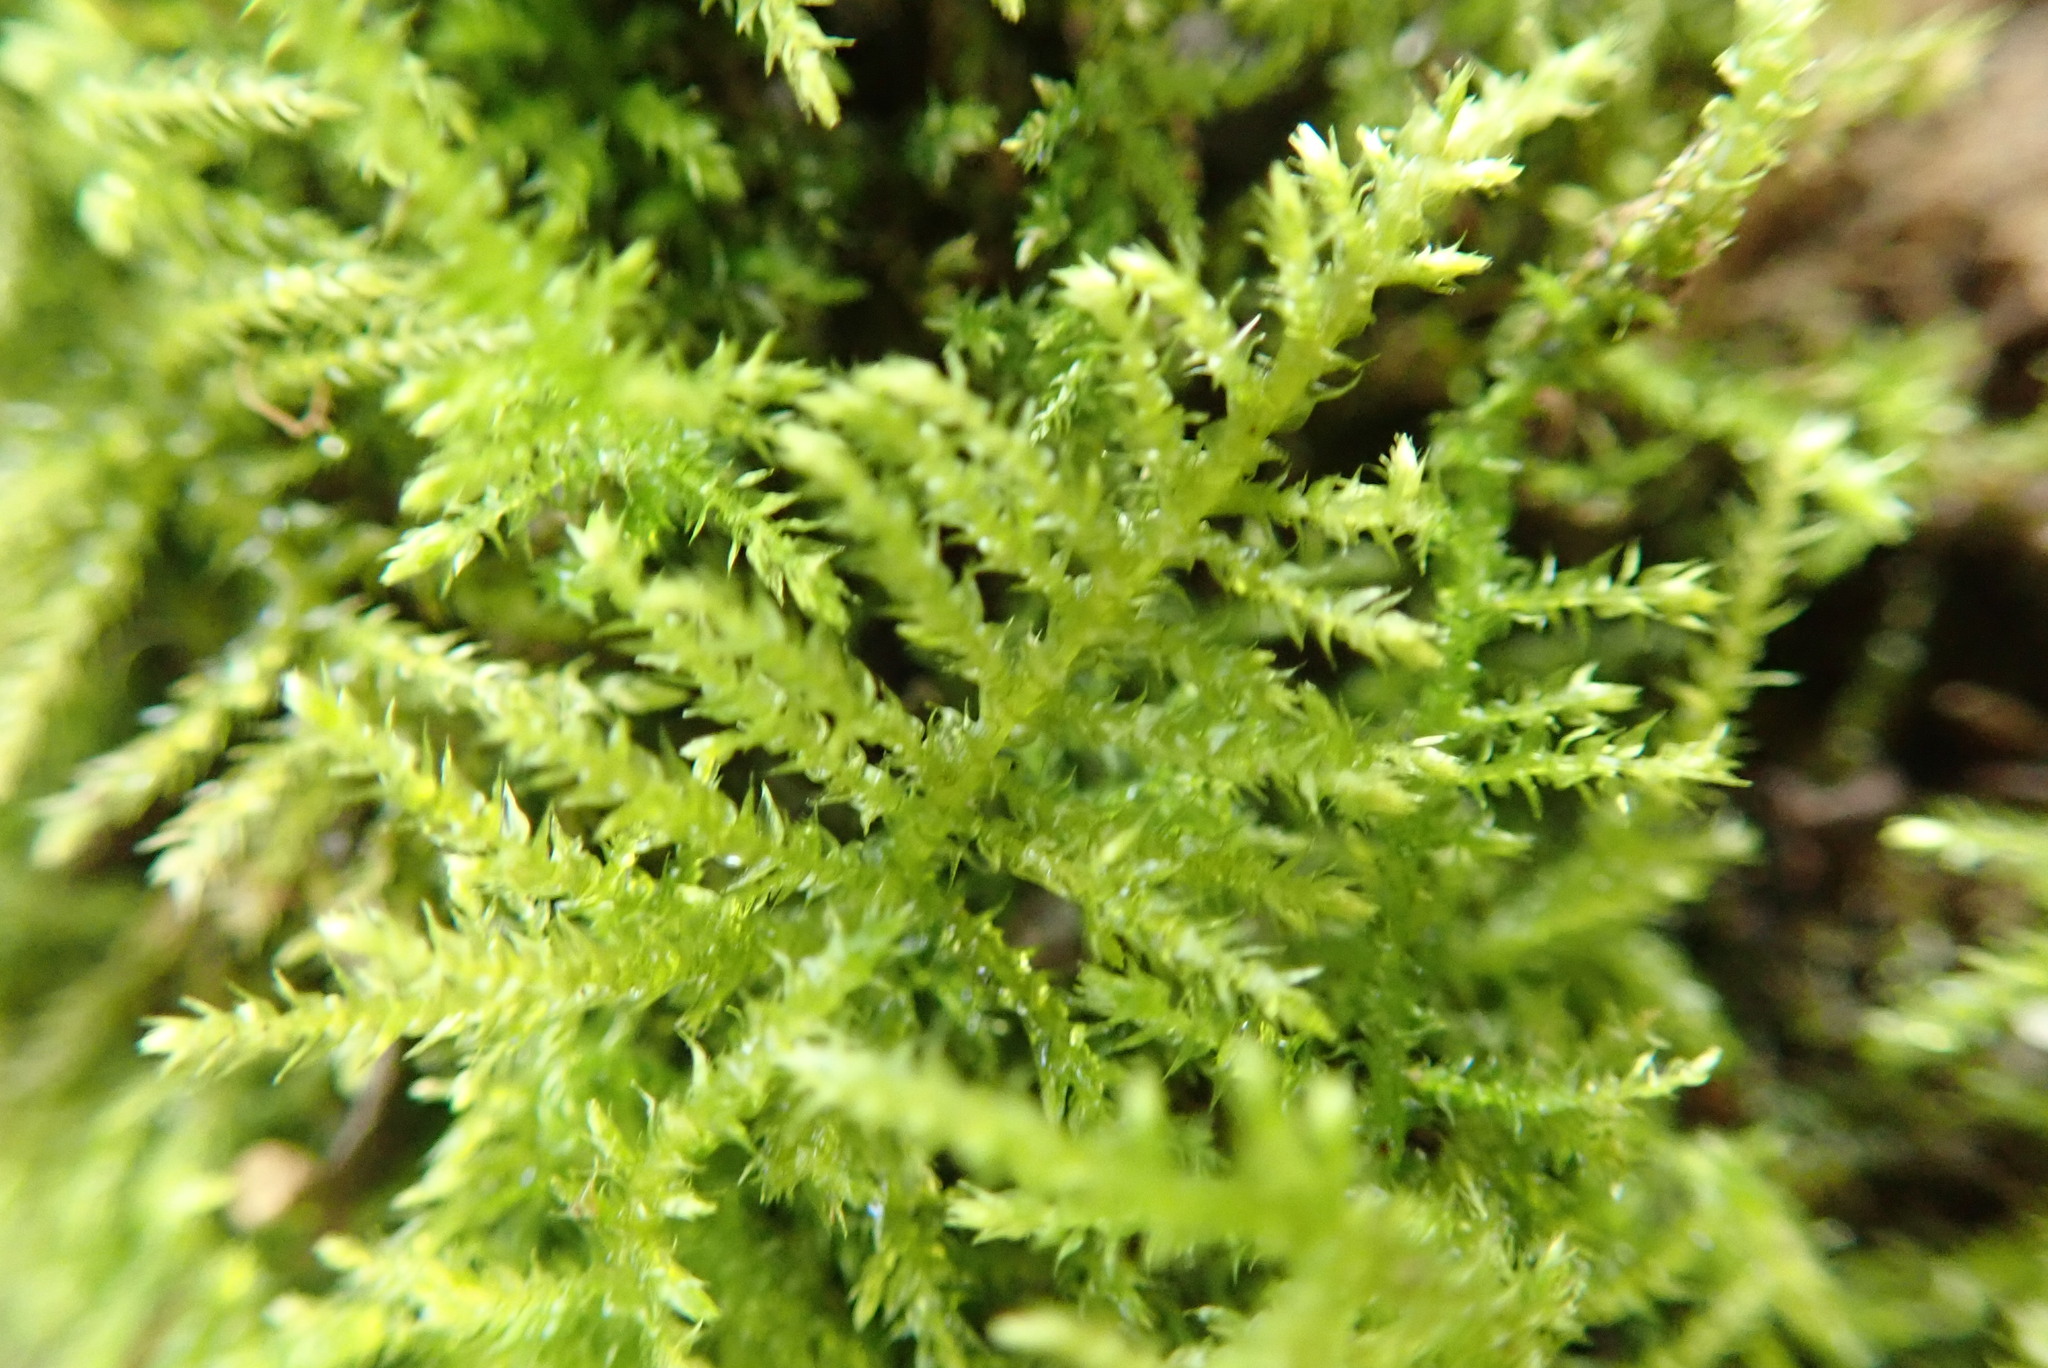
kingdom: Plantae
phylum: Bryophyta
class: Bryopsida
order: Hypnales
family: Brachytheciaceae
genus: Kindbergia
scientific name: Kindbergia praelonga
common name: Slender beaked moss
